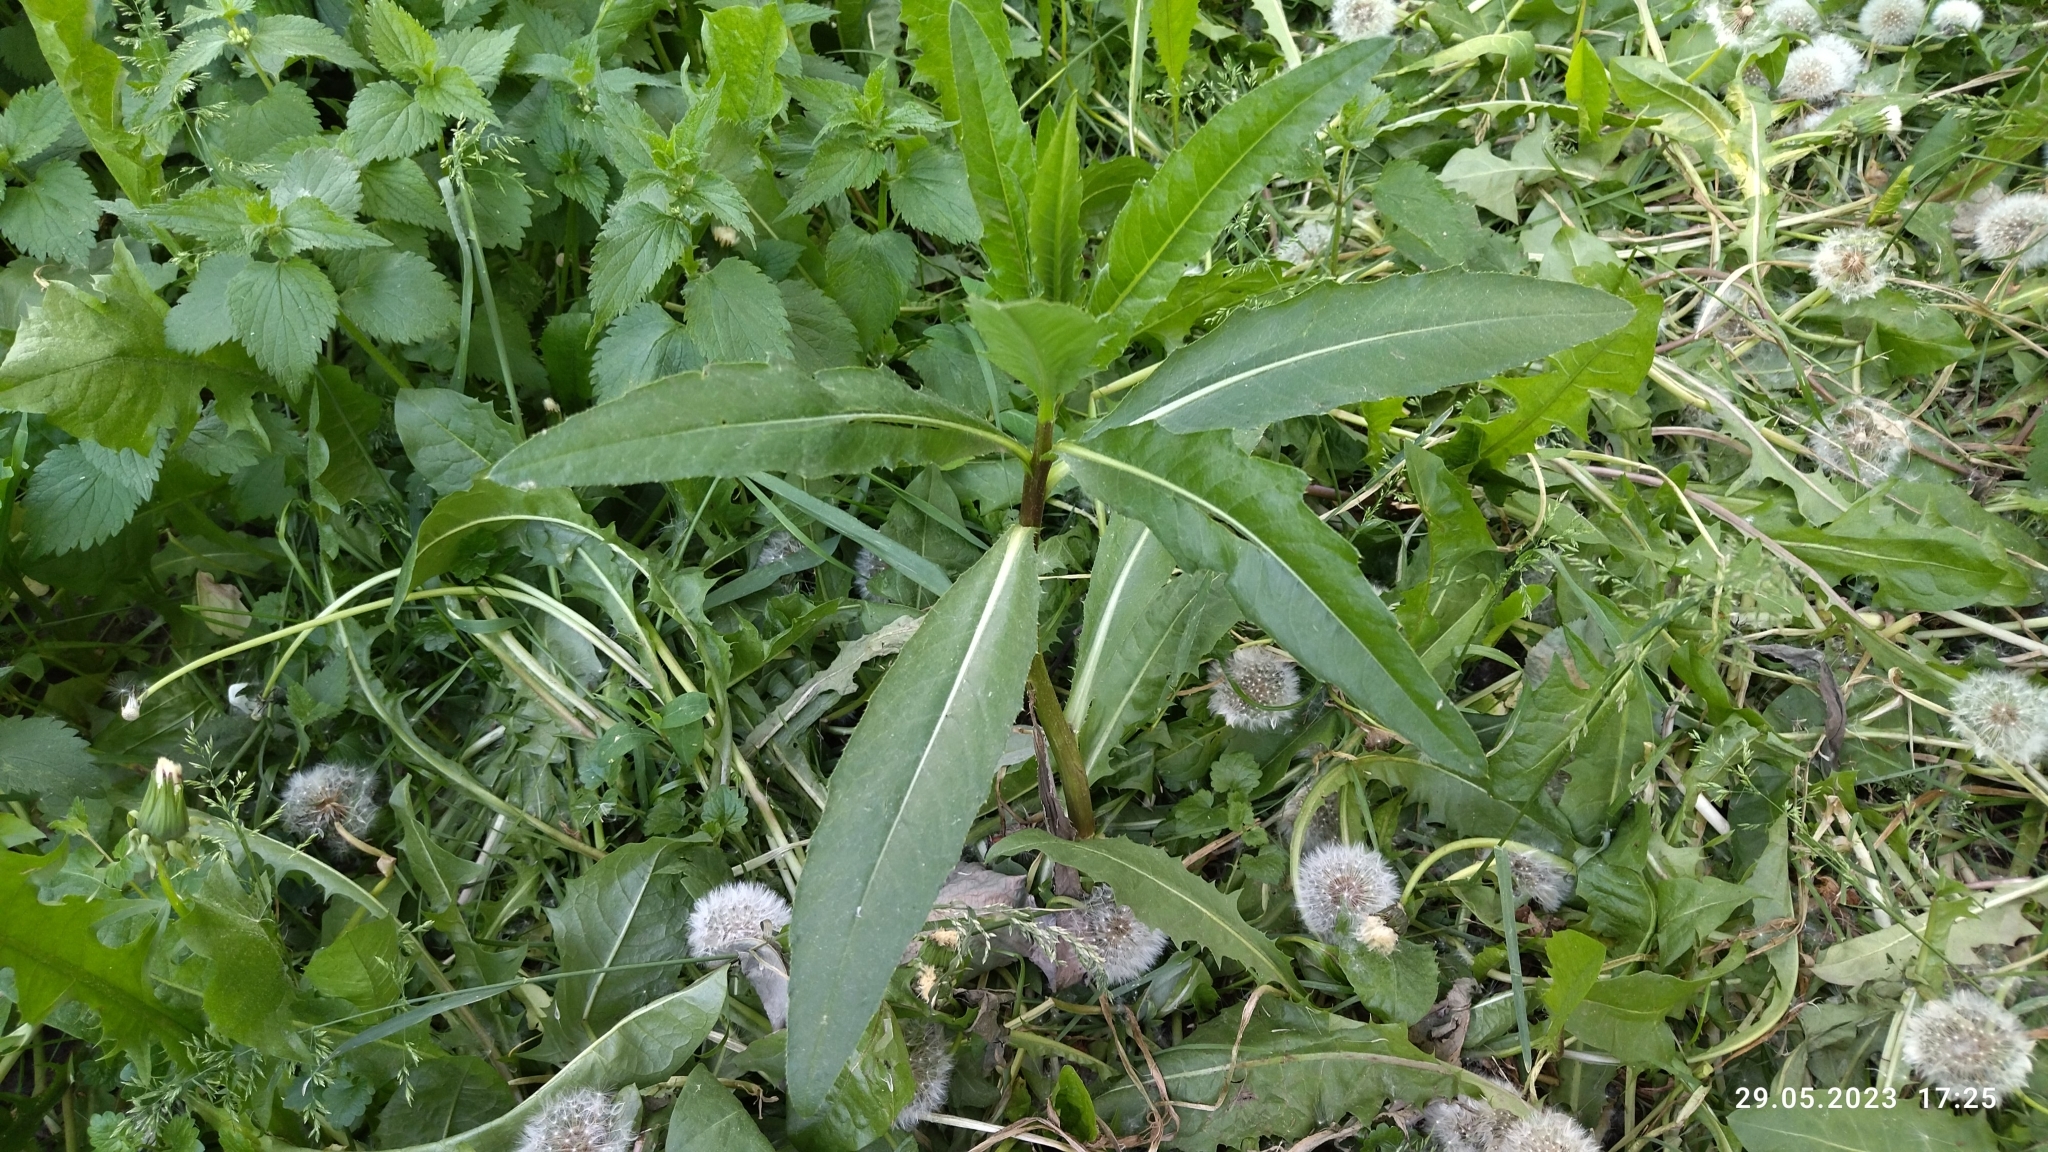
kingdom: Plantae
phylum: Tracheophyta
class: Magnoliopsida
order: Asterales
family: Asteraceae
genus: Cirsium
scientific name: Cirsium arvense
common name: Creeping thistle
